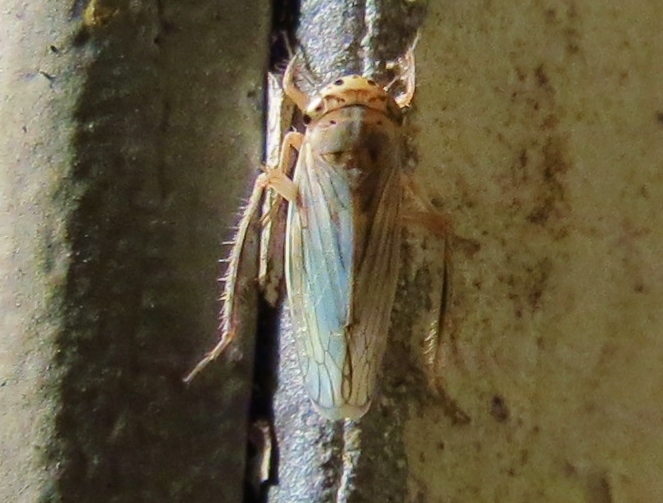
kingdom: Animalia
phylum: Arthropoda
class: Insecta
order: Hemiptera
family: Cicadellidae
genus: Exitianus
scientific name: Exitianus exitiosus
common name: Gray lawn leafhopper
